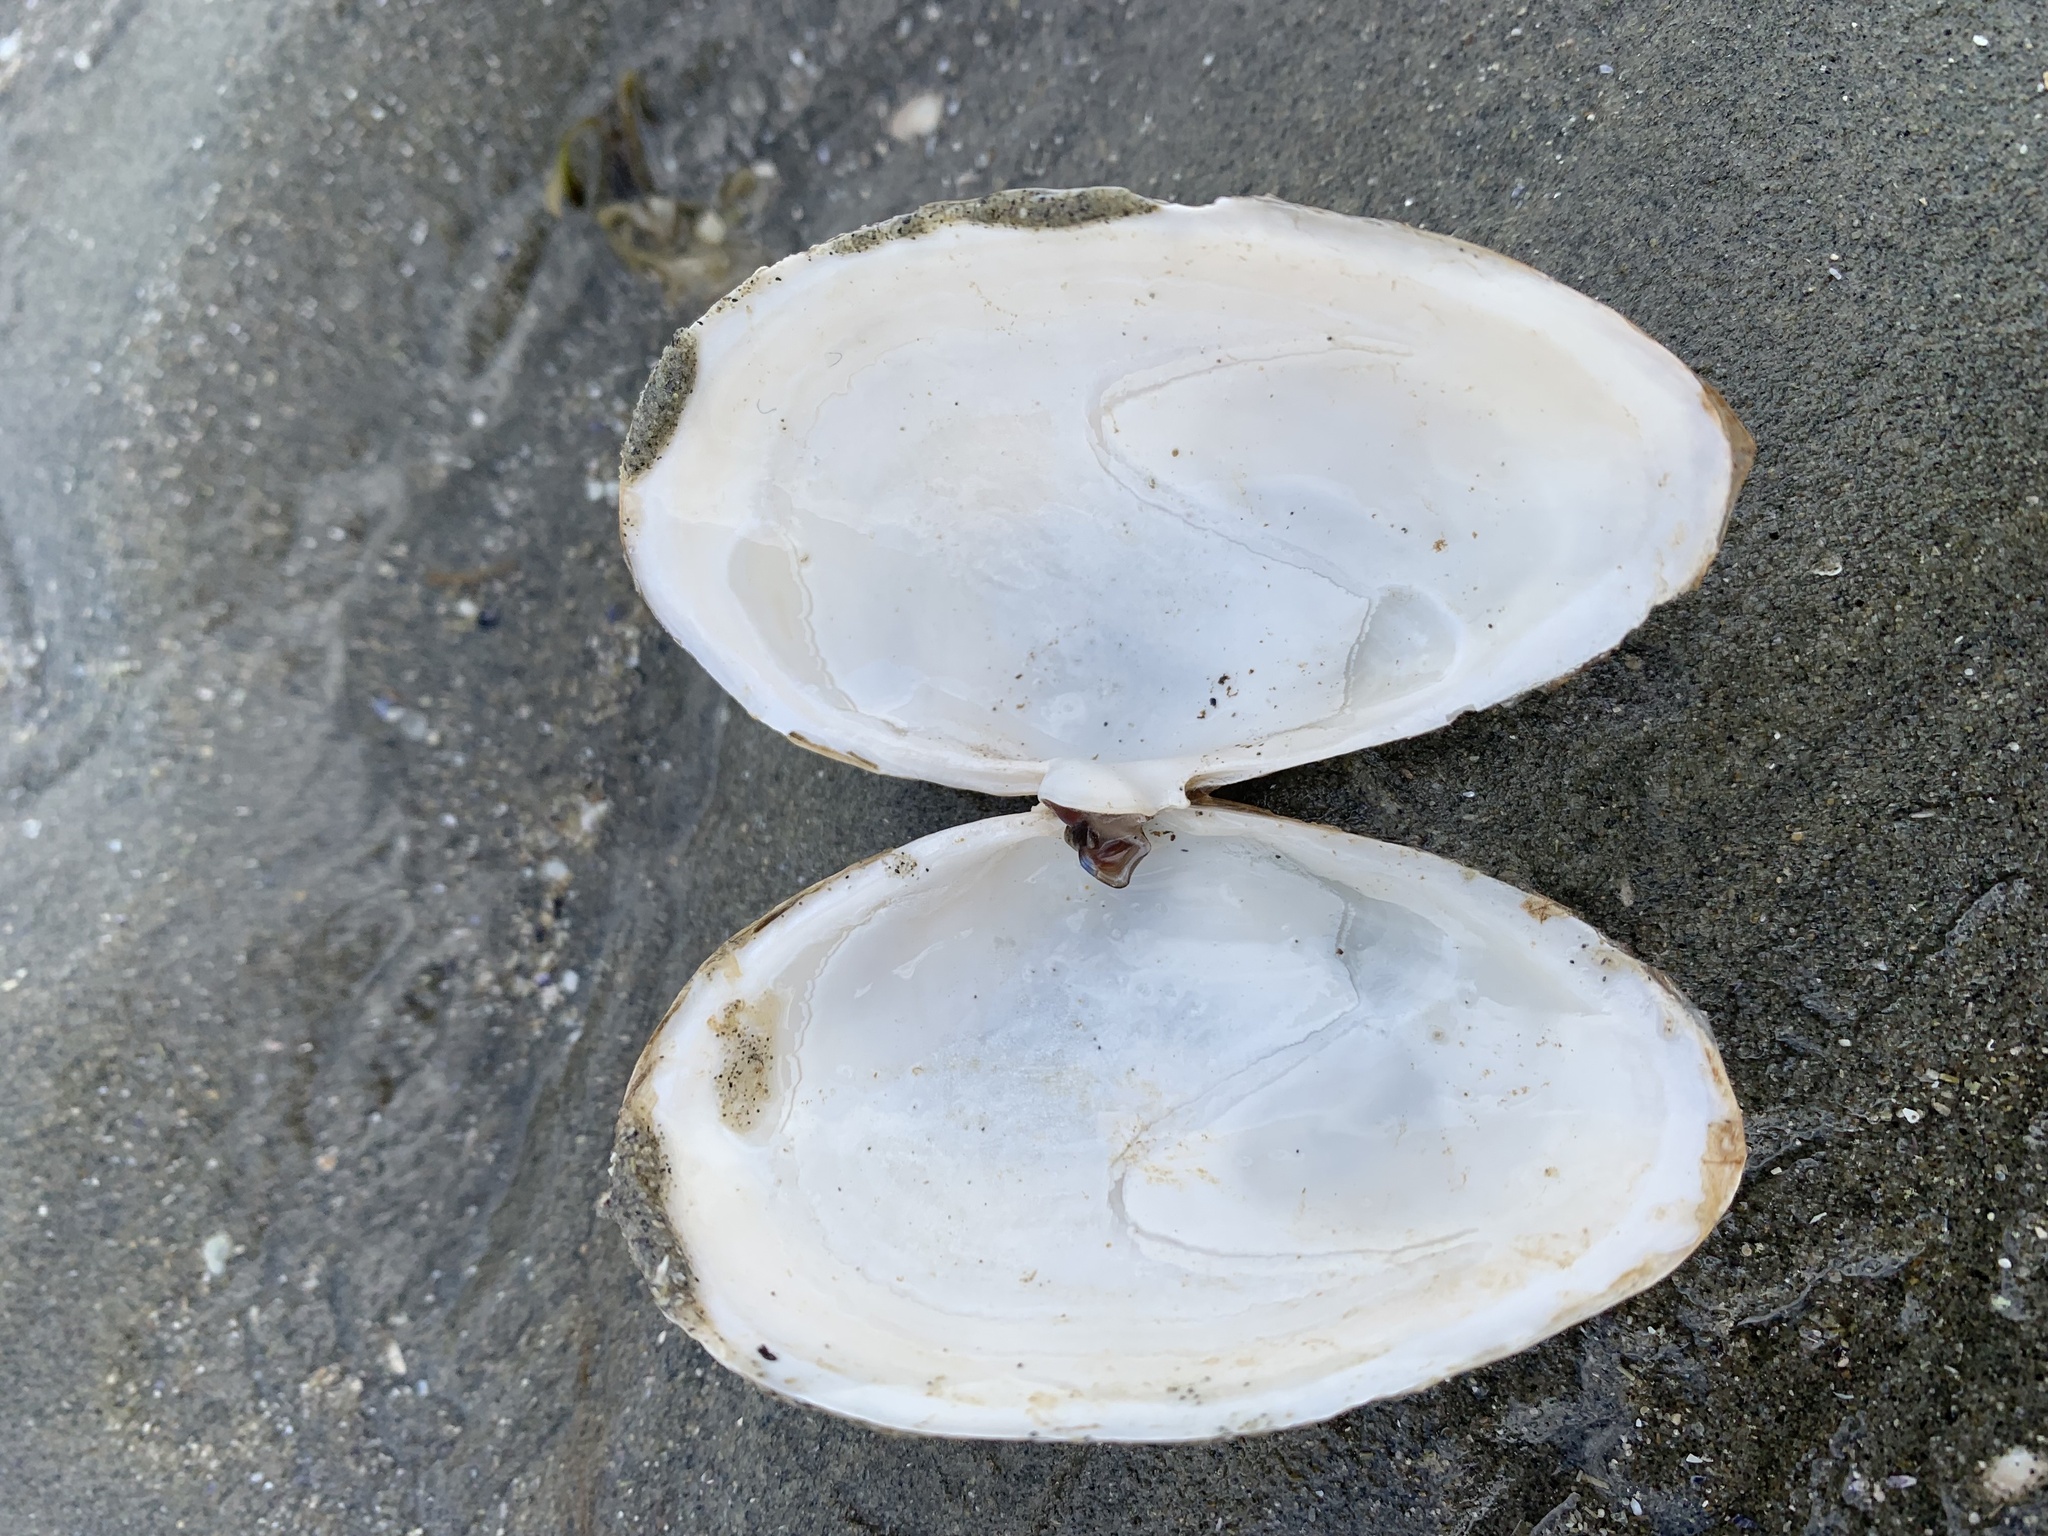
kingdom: Animalia
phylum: Mollusca
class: Bivalvia
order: Myida
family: Myidae
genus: Mya
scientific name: Mya arenaria
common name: Soft-shelled clam
